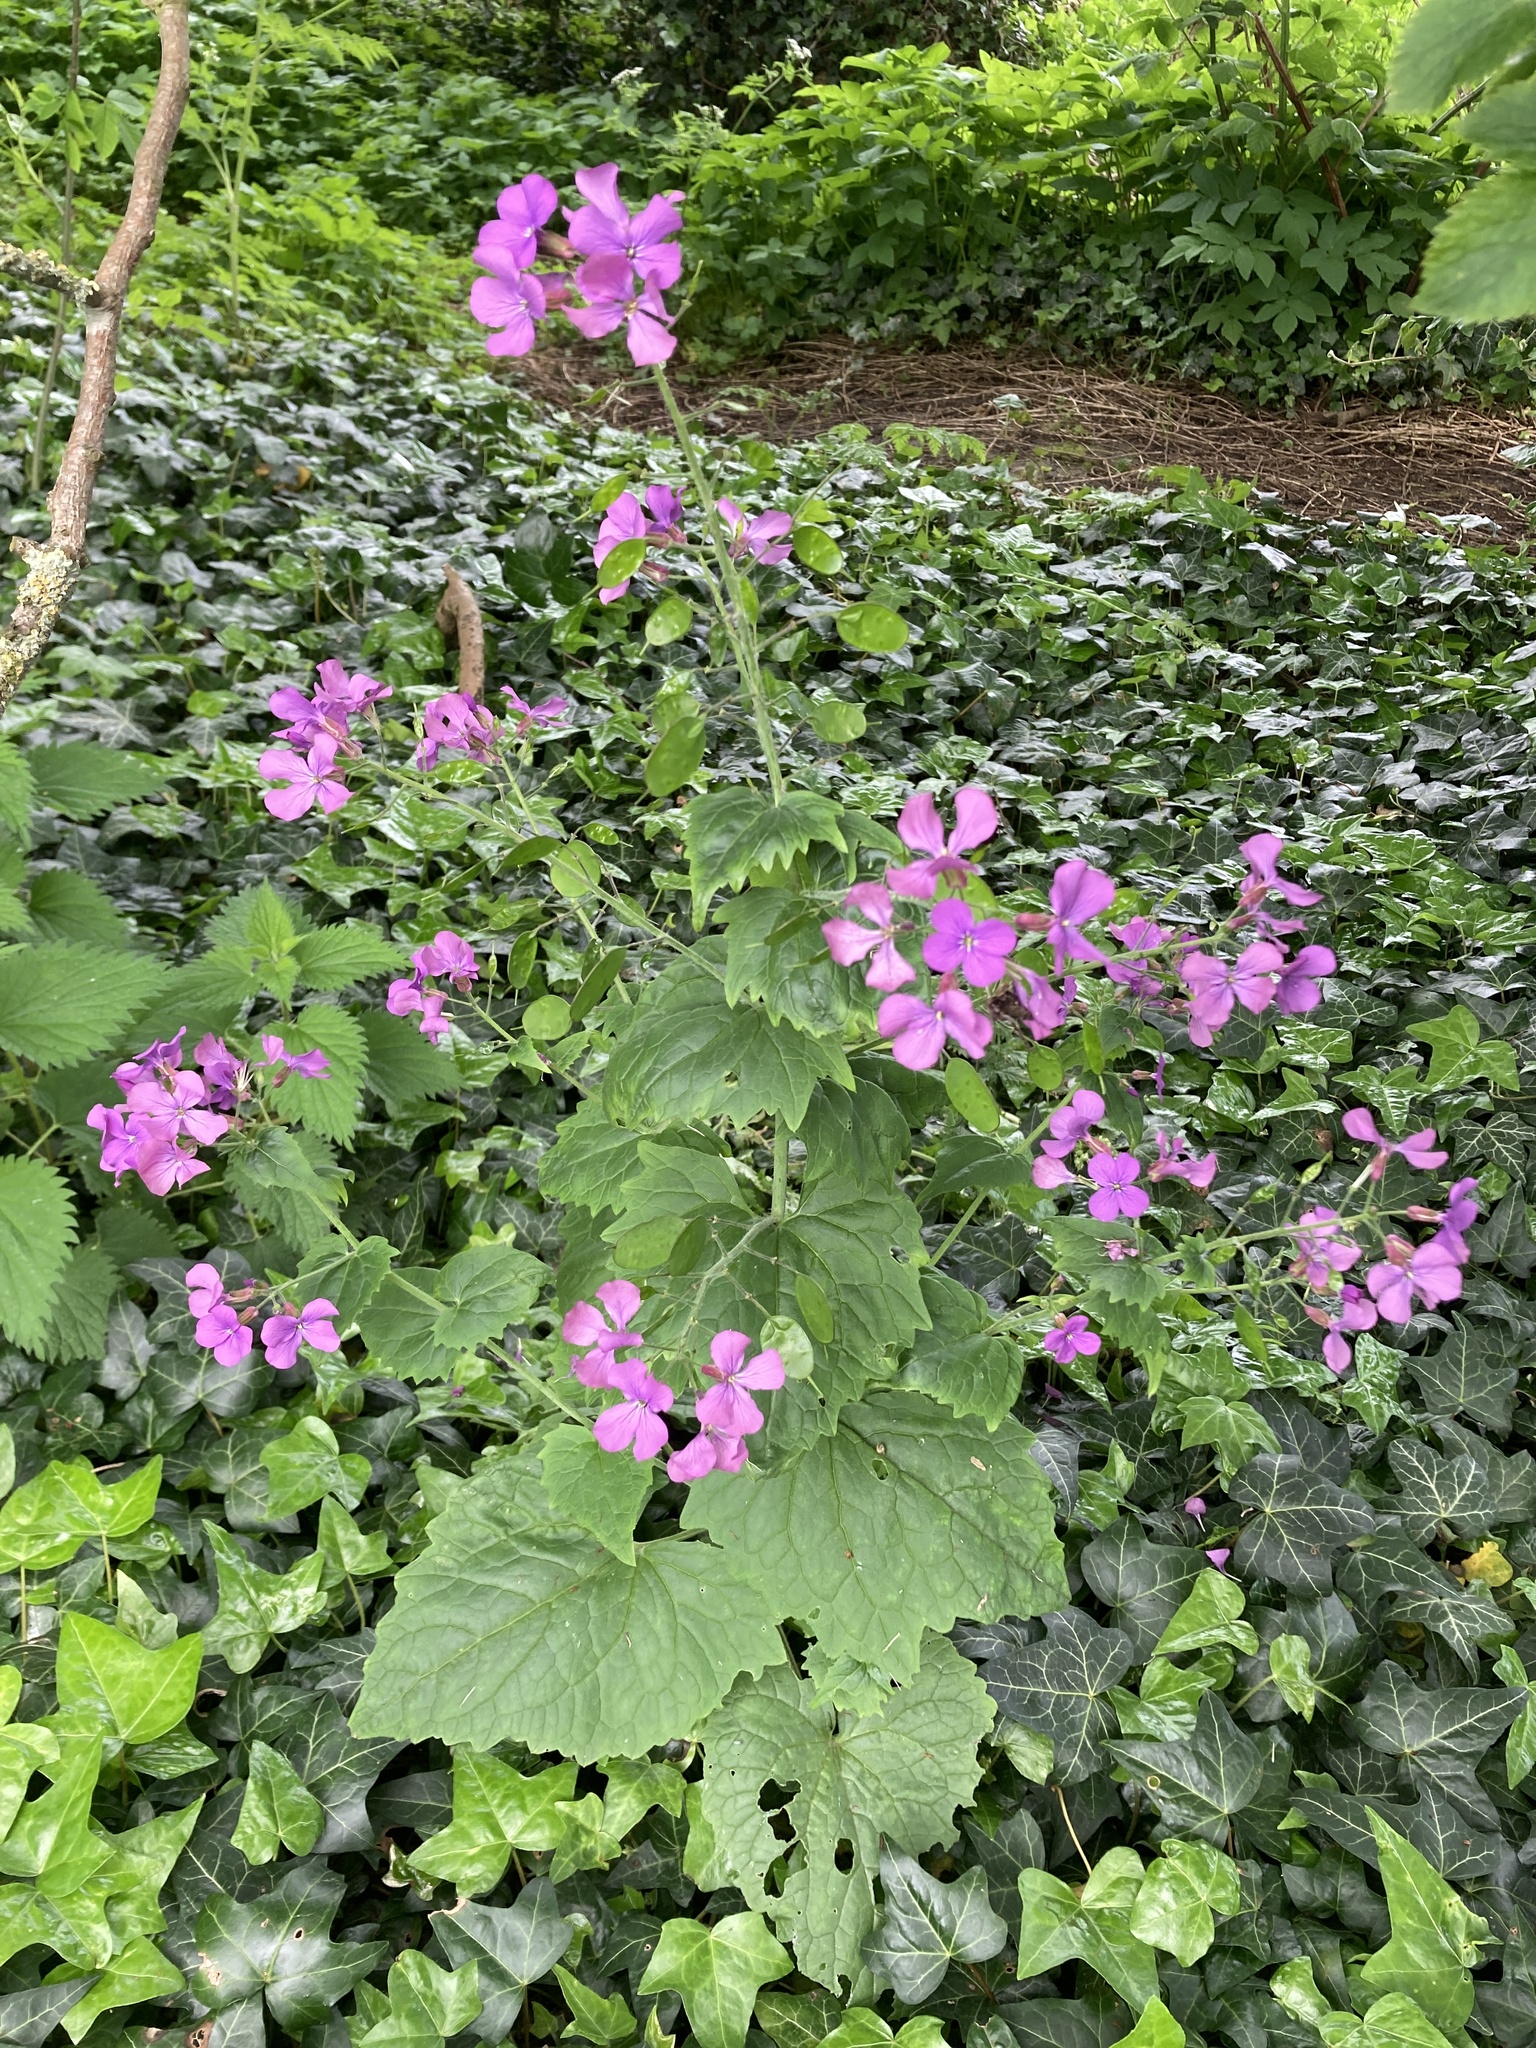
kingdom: Plantae
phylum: Tracheophyta
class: Magnoliopsida
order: Brassicales
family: Brassicaceae
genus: Lunaria
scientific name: Lunaria annua
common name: Honesty
